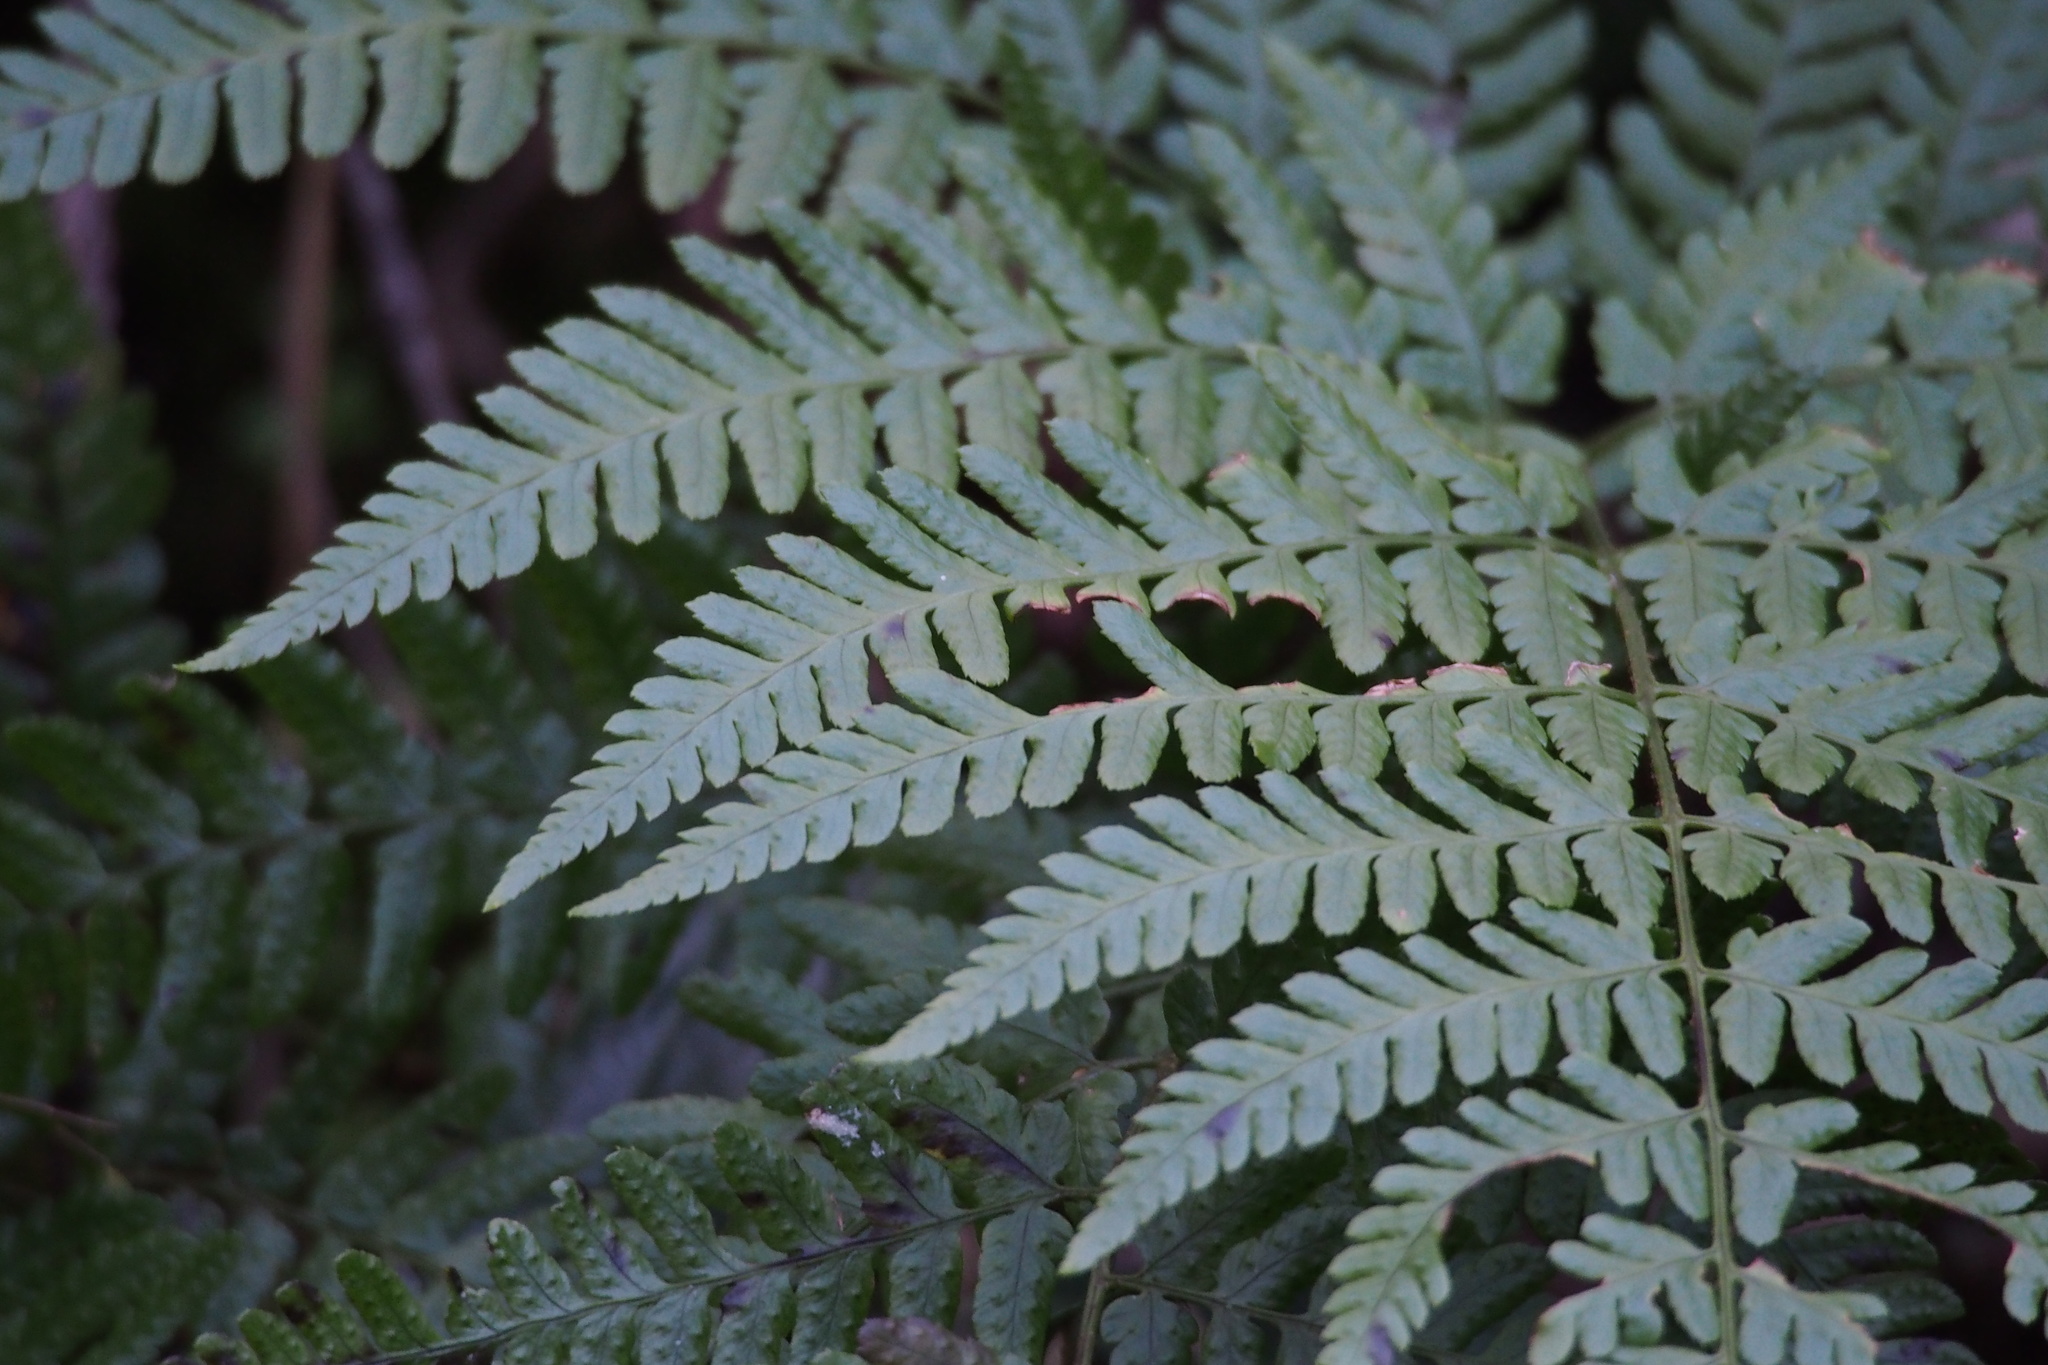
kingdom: Plantae
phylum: Tracheophyta
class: Polypodiopsida
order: Polypodiales
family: Dryopteridaceae
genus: Dryopteris
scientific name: Dryopteris immixta
